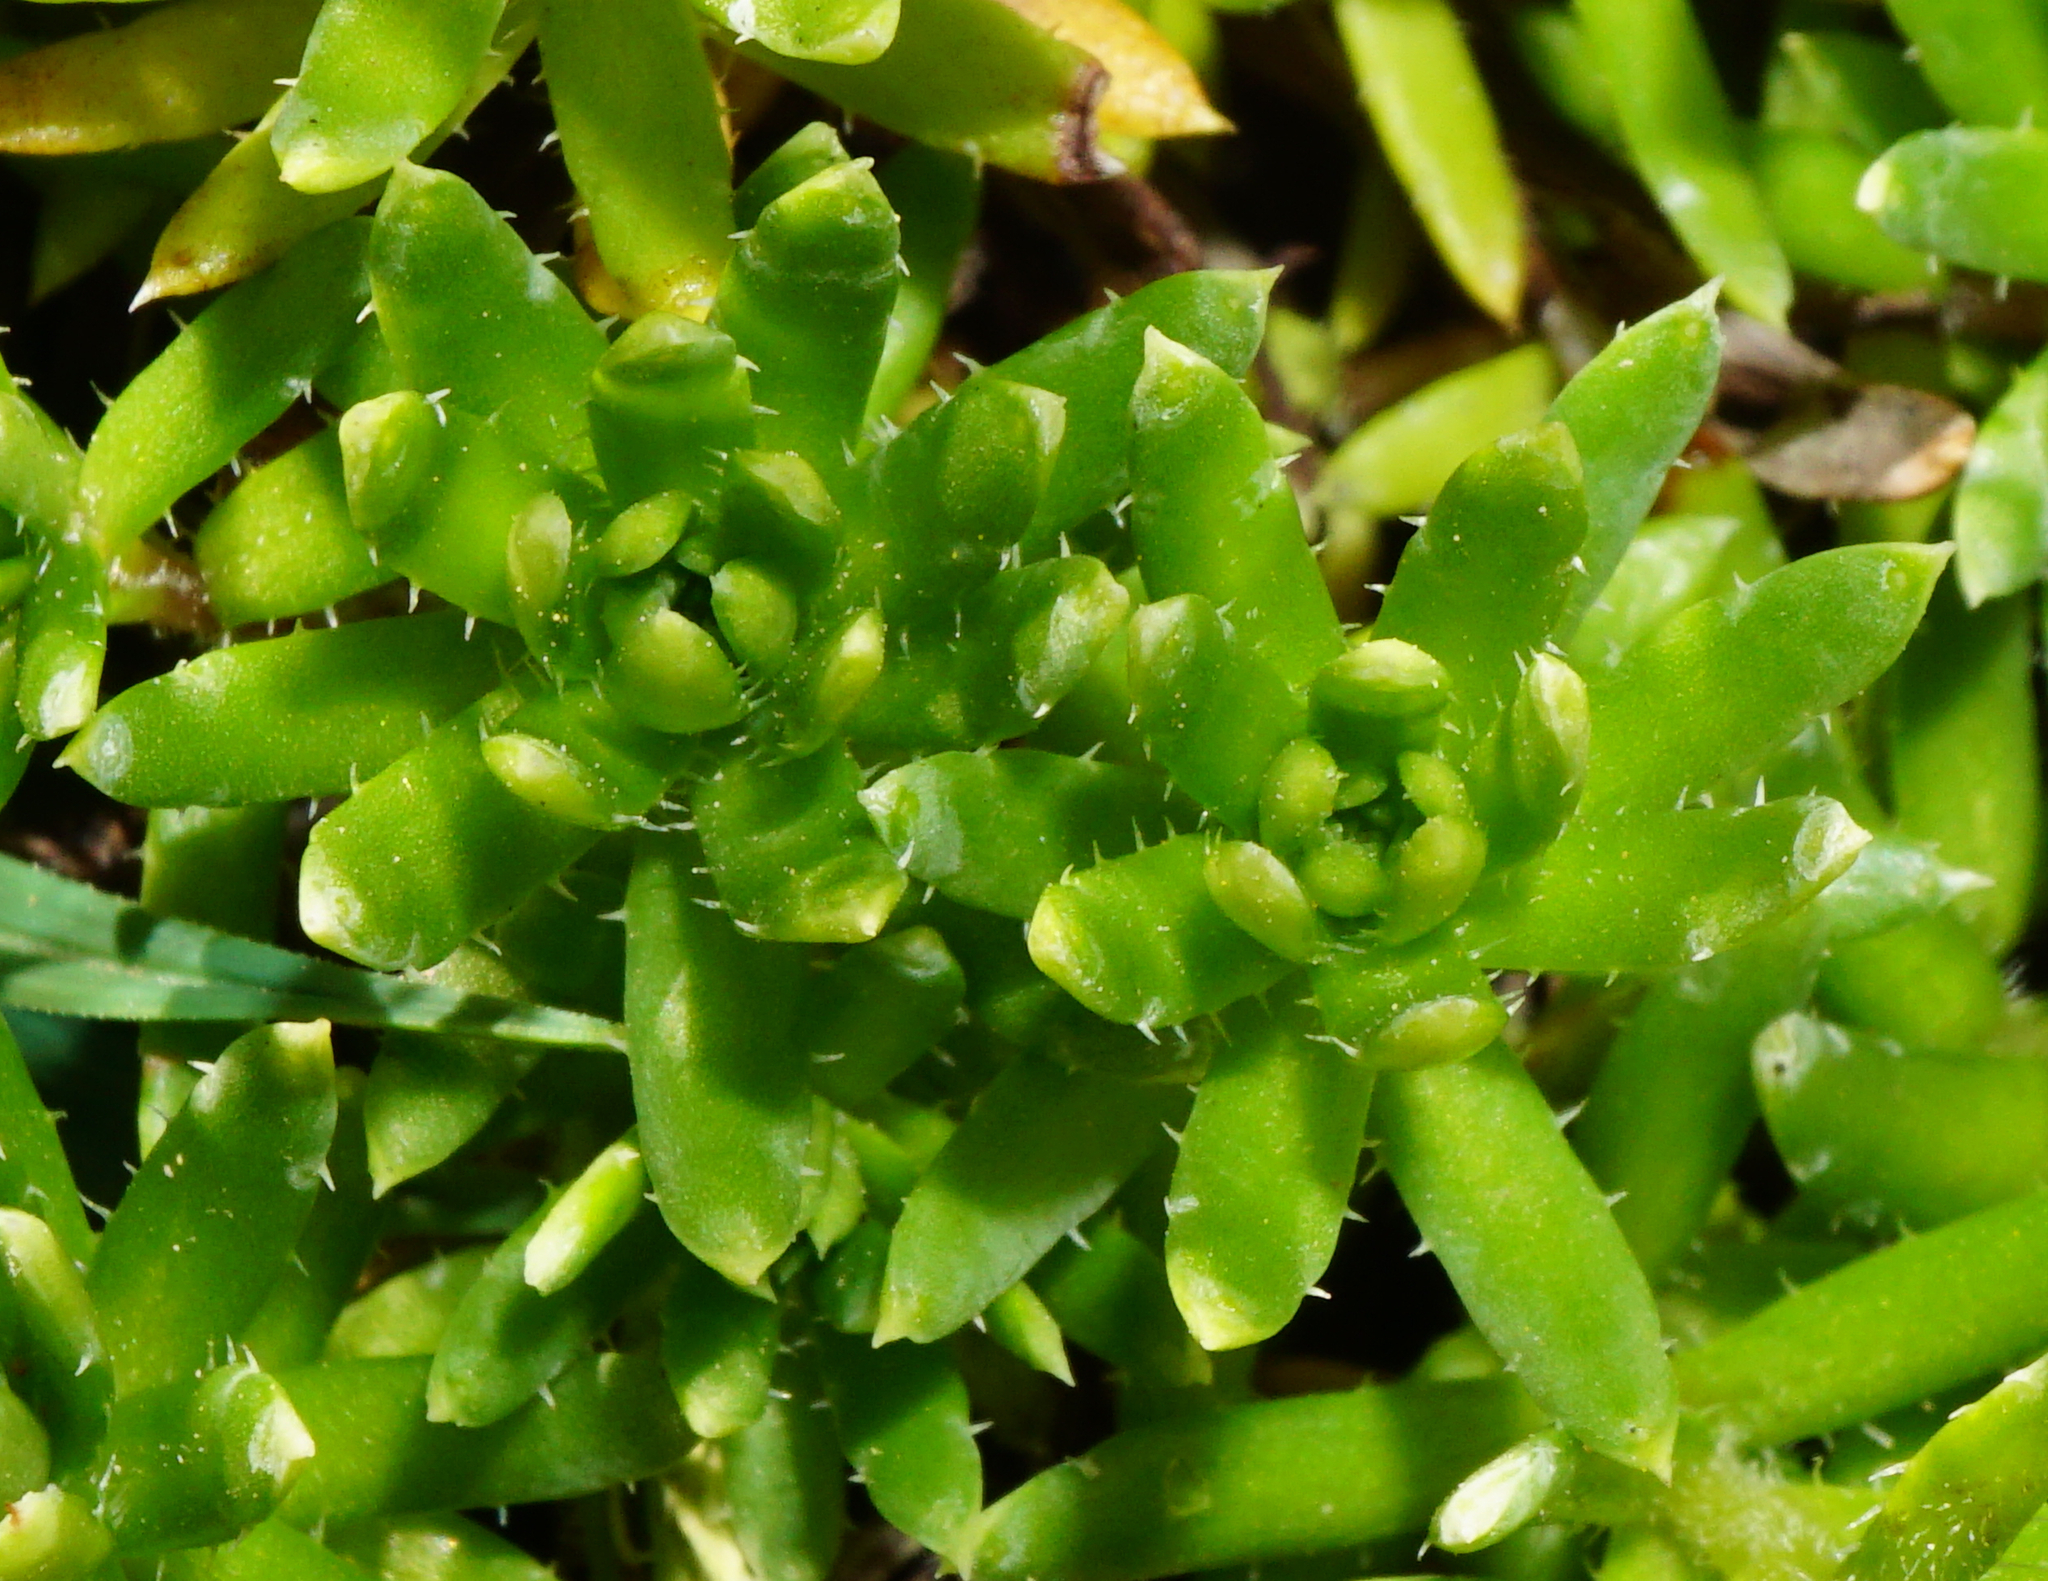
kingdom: Plantae
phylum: Tracheophyta
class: Magnoliopsida
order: Saxifragales
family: Saxifragaceae
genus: Saxifraga
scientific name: Saxifraga aizoides
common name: Yellow mountain saxifrage
